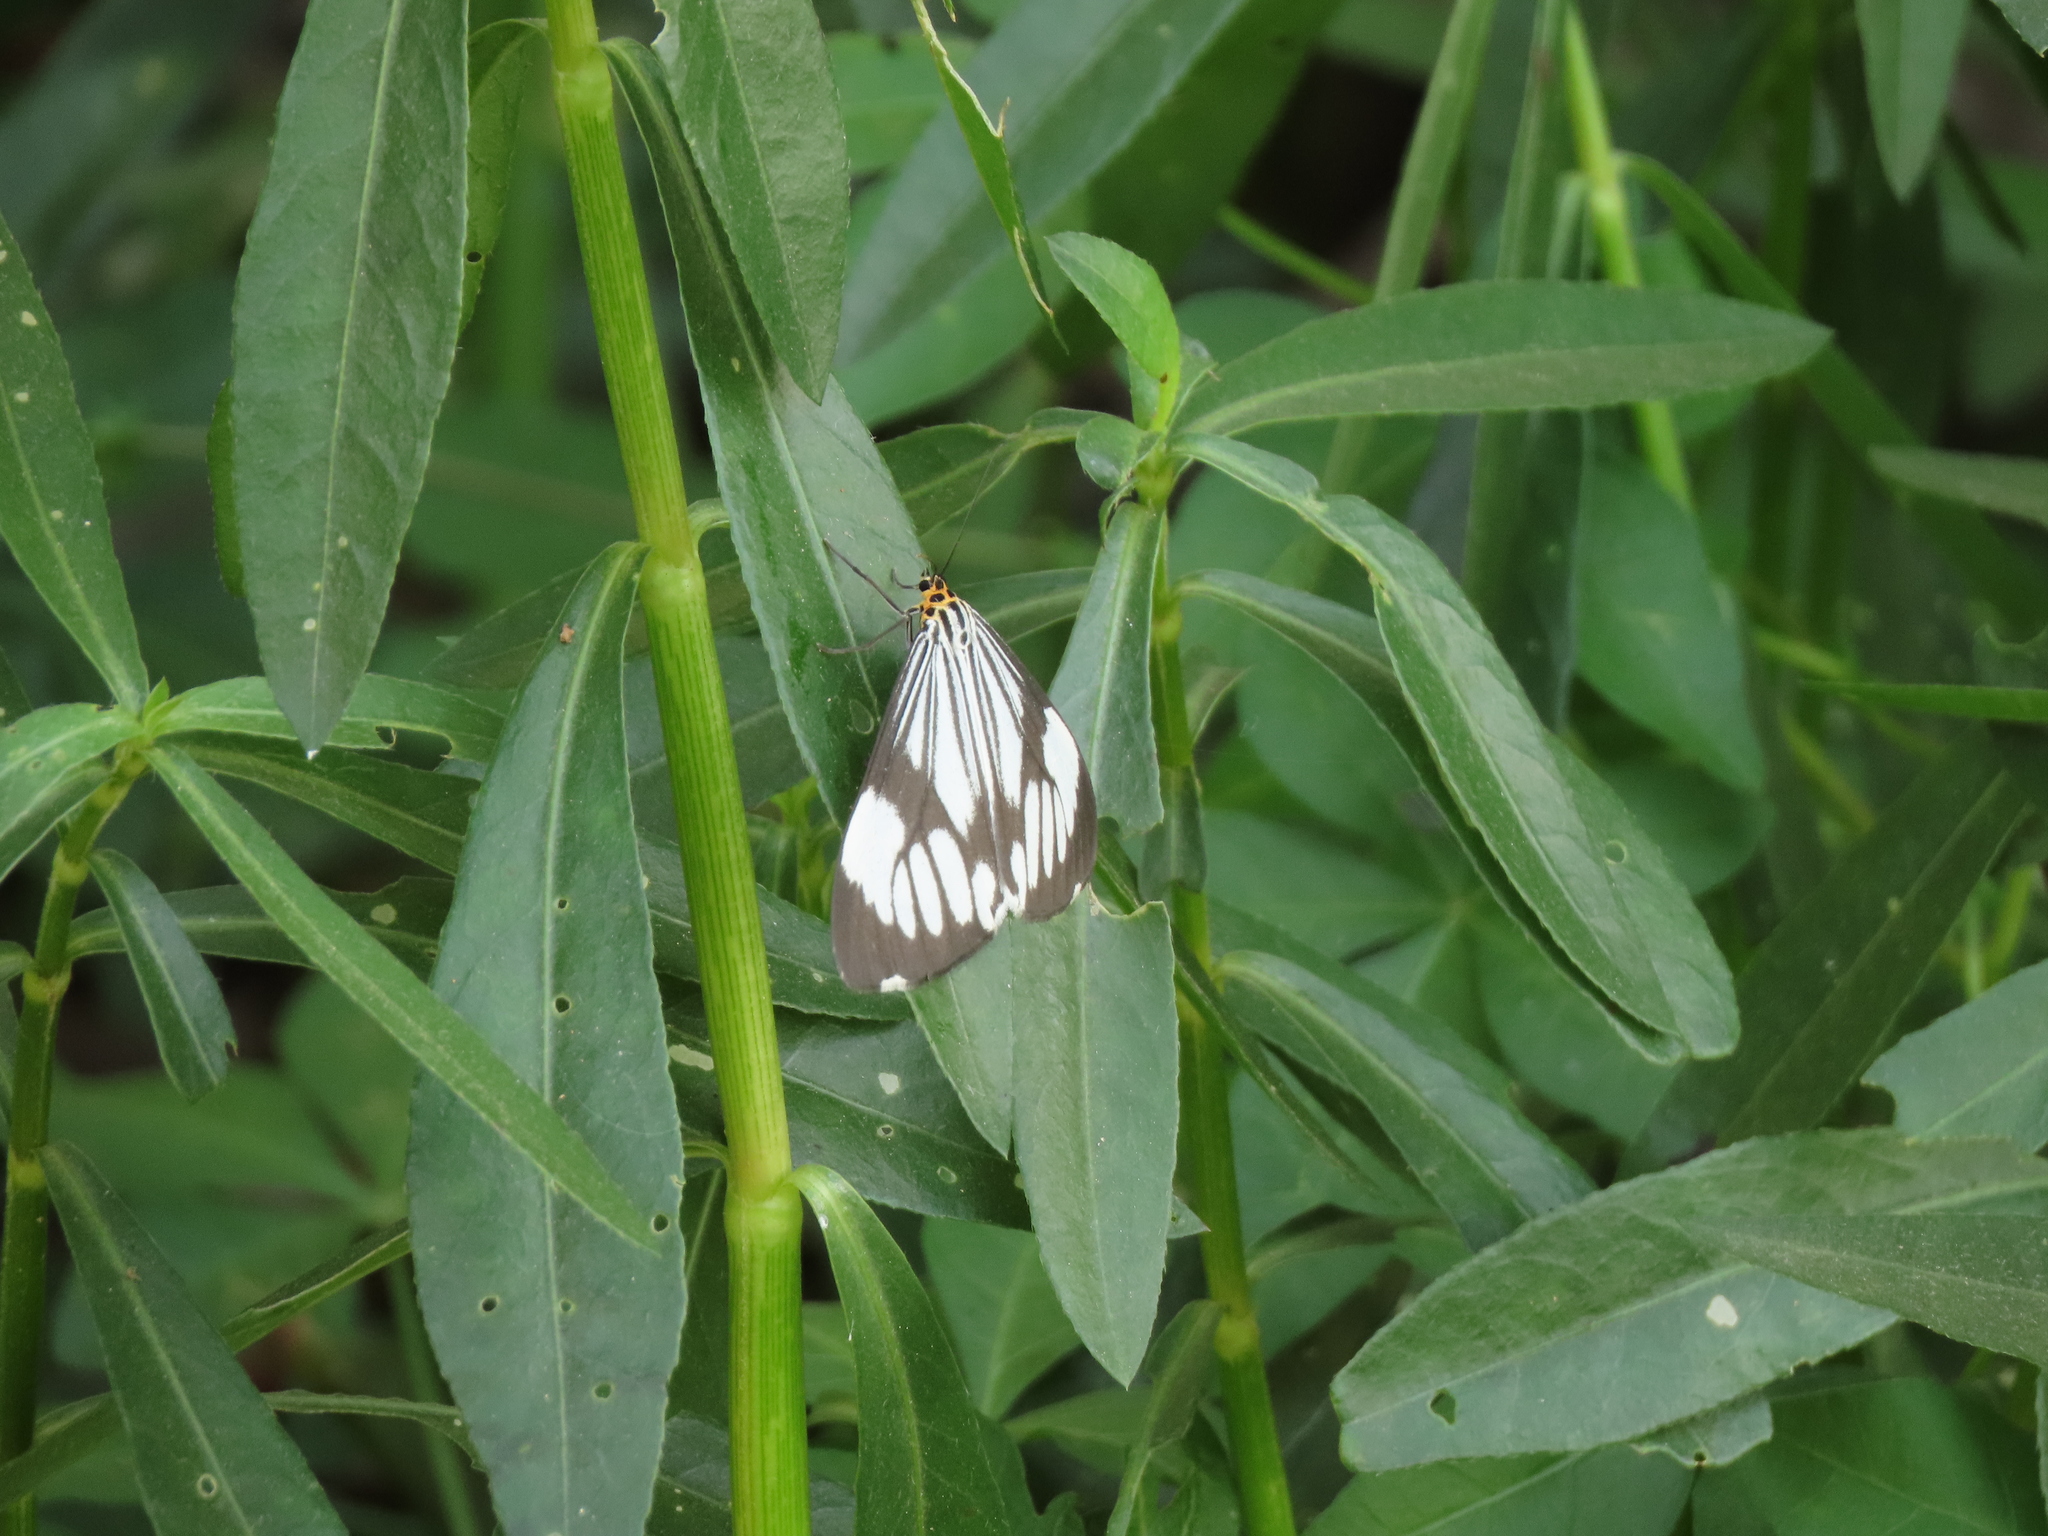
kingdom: Animalia
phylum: Arthropoda
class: Insecta
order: Lepidoptera
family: Erebidae
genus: Nyctemera
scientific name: Nyctemera coleta
